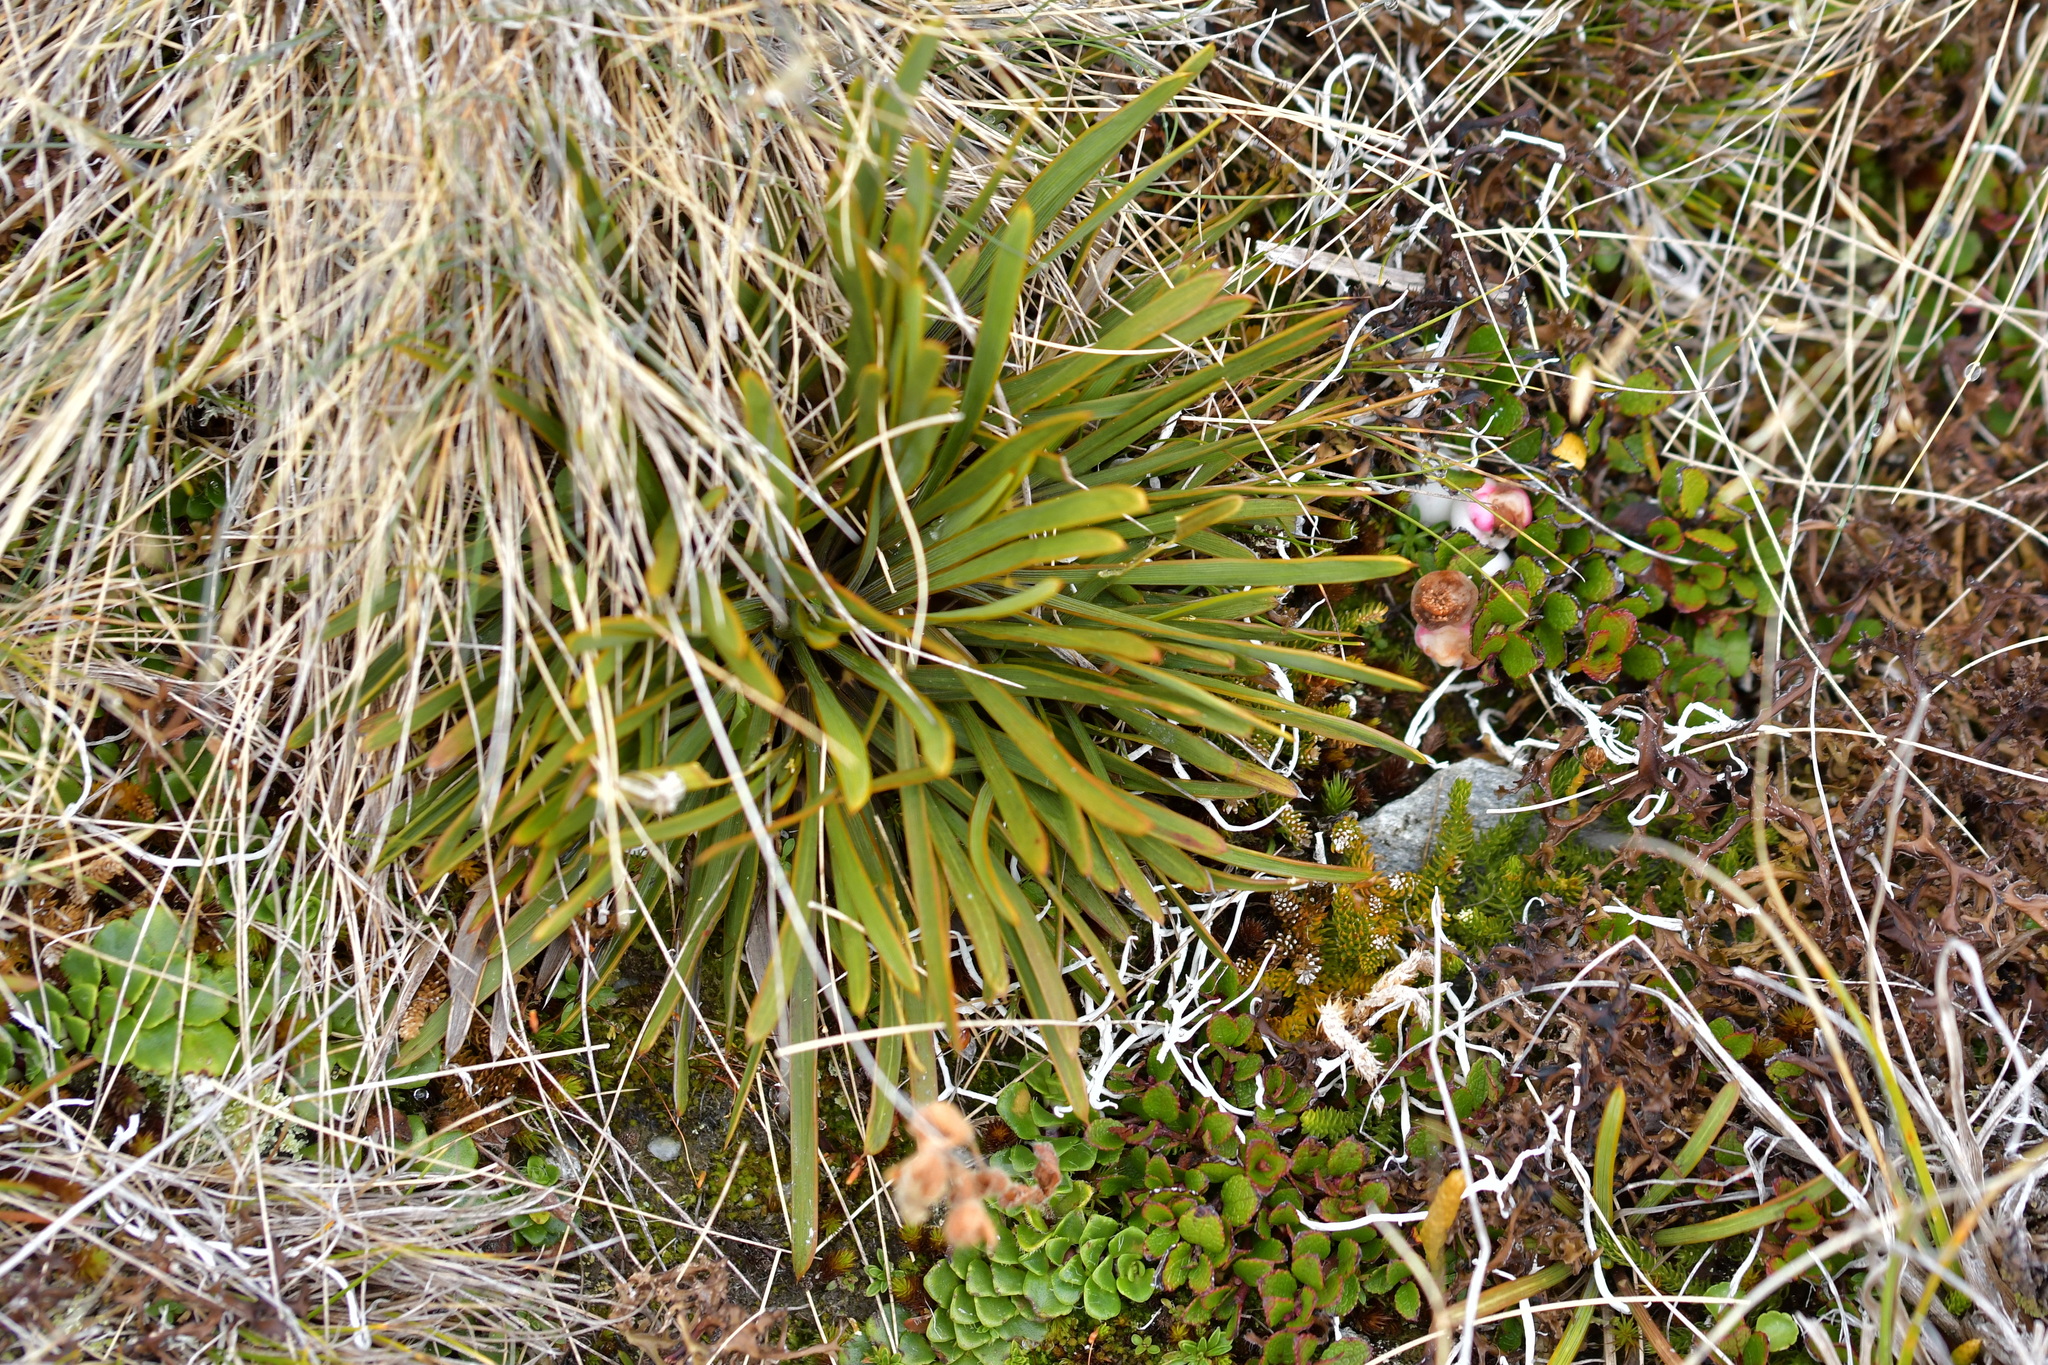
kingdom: Plantae
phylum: Tracheophyta
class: Magnoliopsida
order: Apiales
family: Apiaceae
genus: Aciphylla
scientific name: Aciphylla verticillata
